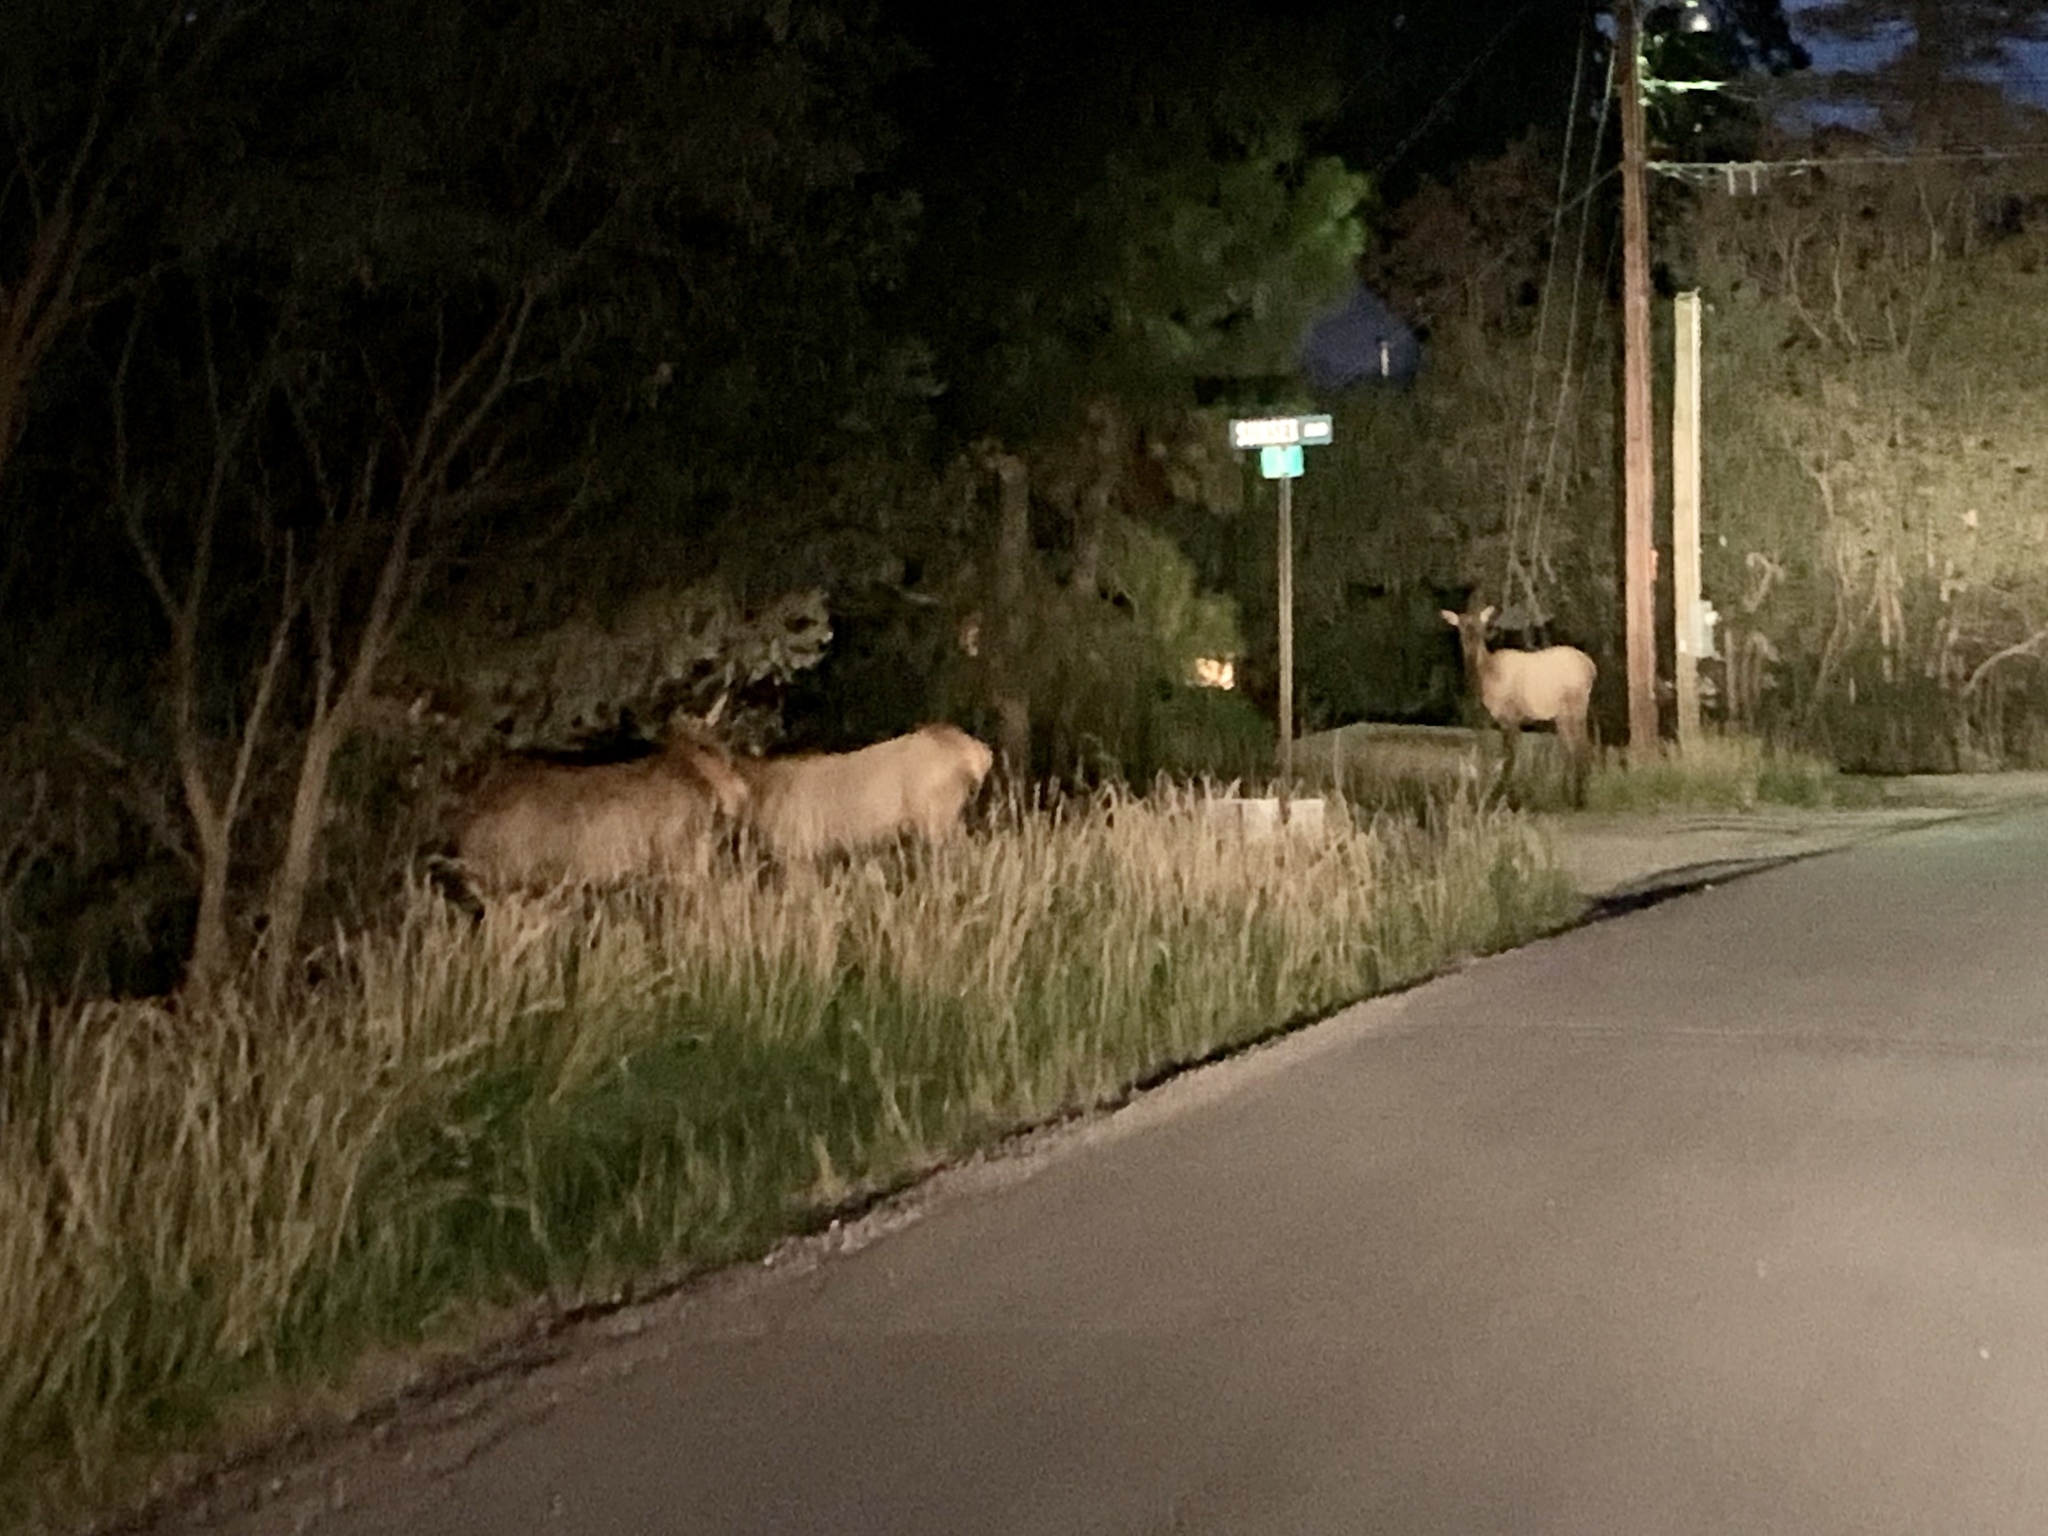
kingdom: Animalia
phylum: Chordata
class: Mammalia
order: Artiodactyla
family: Cervidae
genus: Cervus
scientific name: Cervus elaphus
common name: Red deer
